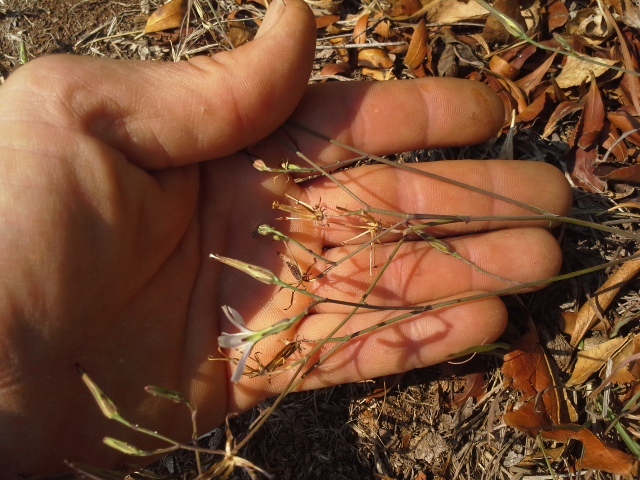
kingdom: Plantae
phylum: Tracheophyta
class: Magnoliopsida
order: Asterales
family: Asteraceae
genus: Lactuca
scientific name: Lactuca inermis
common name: Wild lettuce
